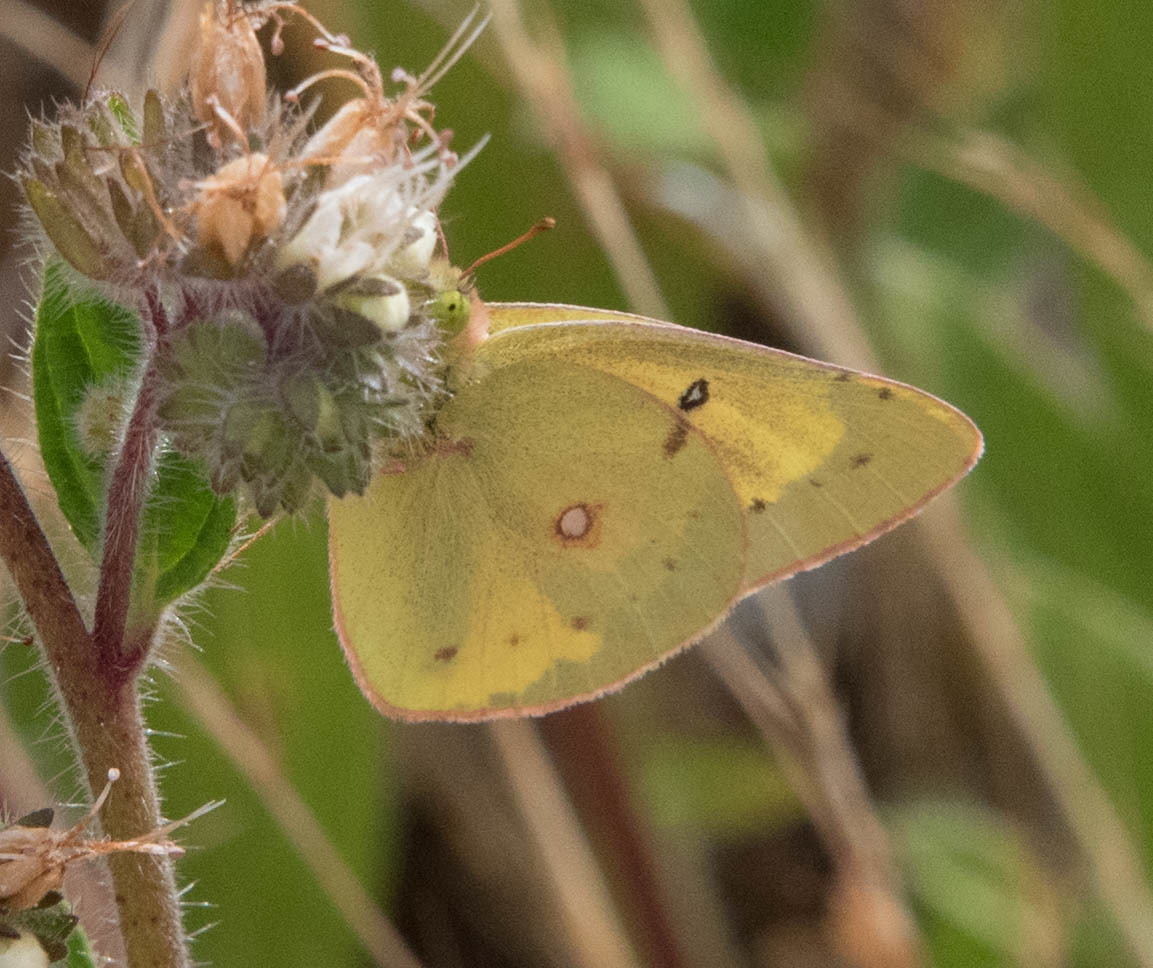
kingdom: Animalia
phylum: Arthropoda
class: Insecta
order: Lepidoptera
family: Pieridae
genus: Colias
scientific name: Colias eurytheme
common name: Alfalfa butterfly
